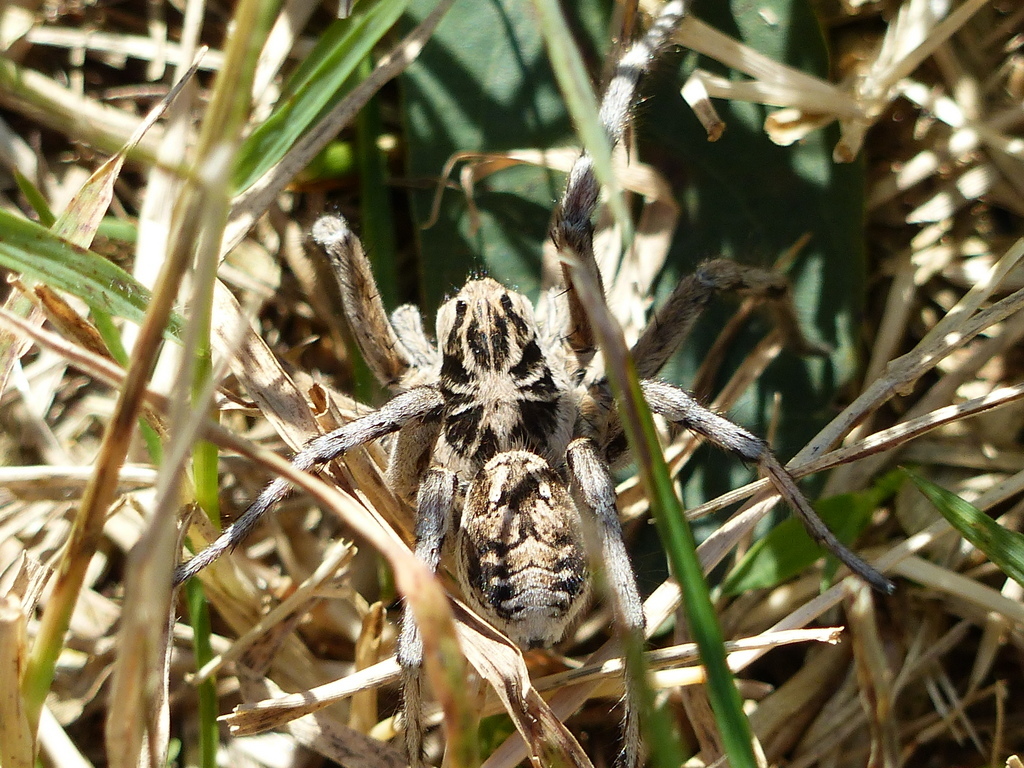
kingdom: Animalia
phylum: Arthropoda
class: Arachnida
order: Araneae
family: Lycosidae
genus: Geolycosa
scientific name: Geolycosa vultuosa
